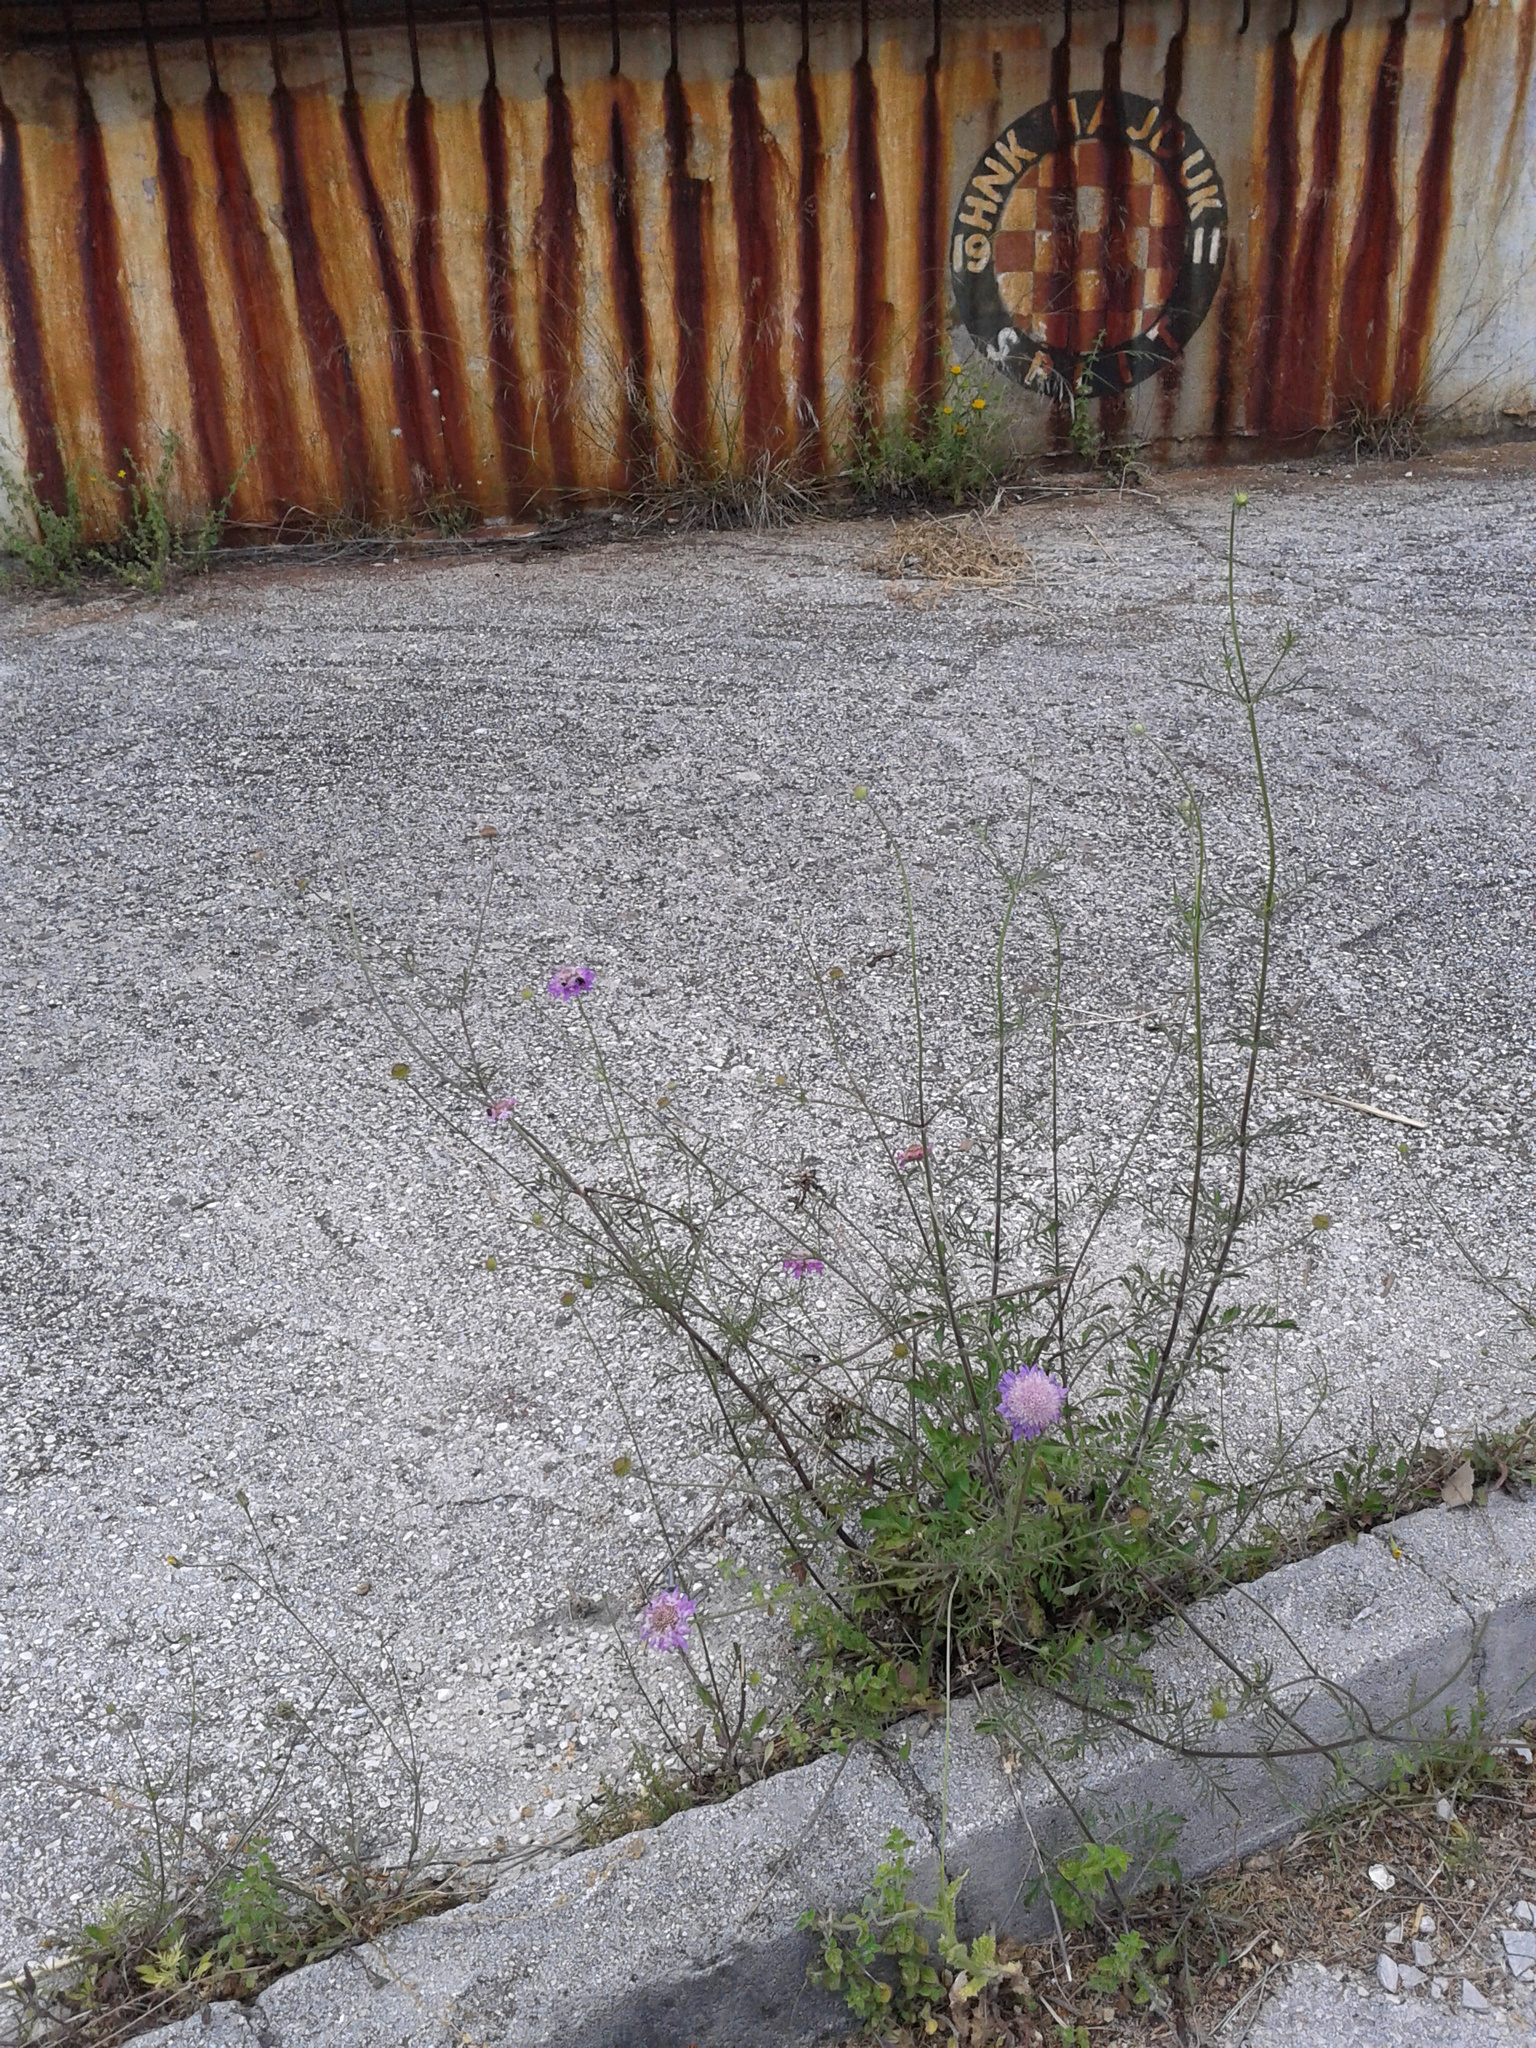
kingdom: Plantae
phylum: Tracheophyta
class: Magnoliopsida
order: Dipsacales
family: Caprifoliaceae
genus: Sixalix
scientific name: Sixalix atropurpurea
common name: Sweet scabious
